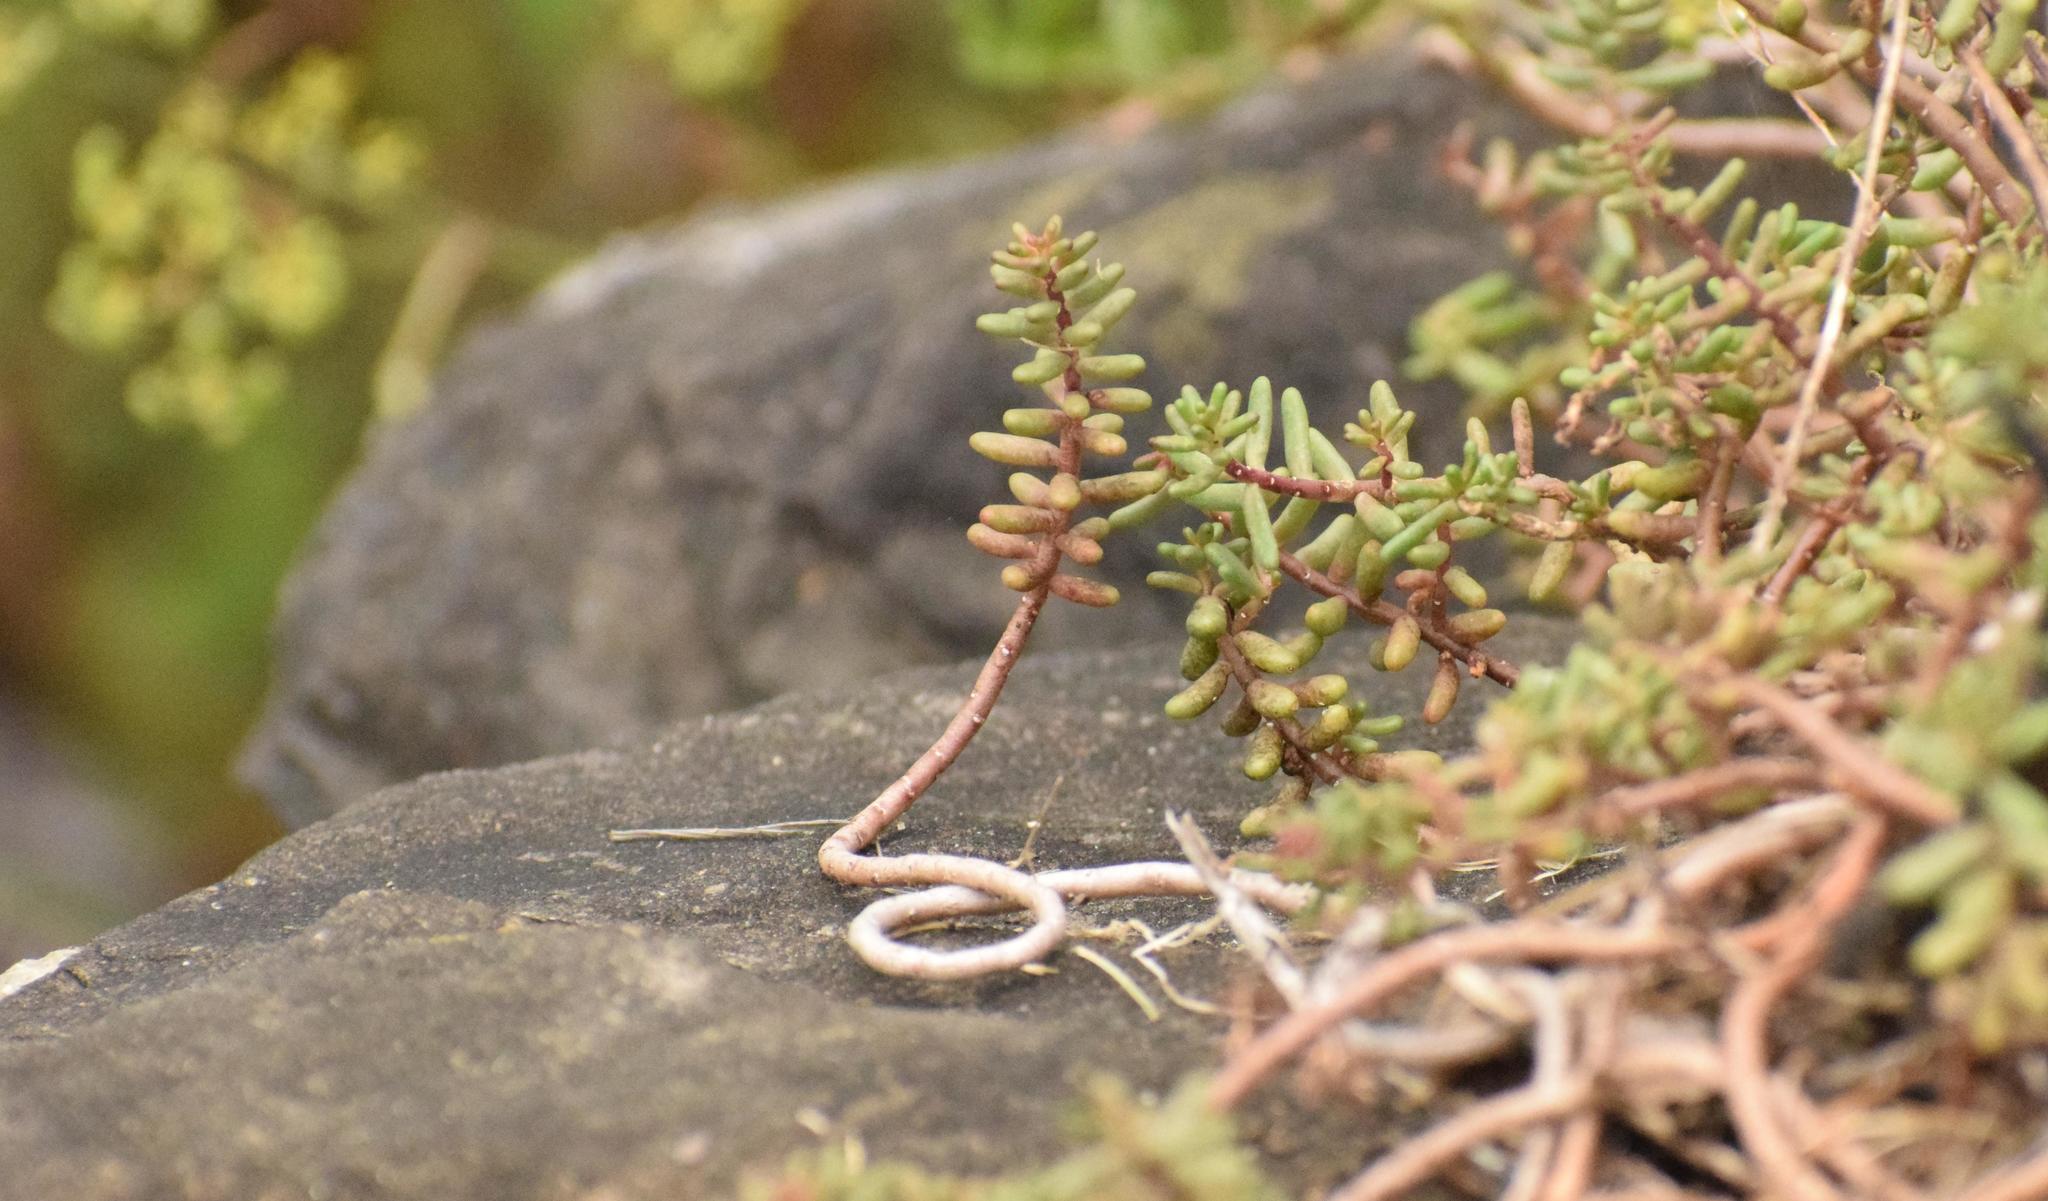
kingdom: Plantae
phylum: Tracheophyta
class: Magnoliopsida
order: Saxifragales
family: Crassulaceae
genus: Sedum
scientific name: Sedum album
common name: White stonecrop
